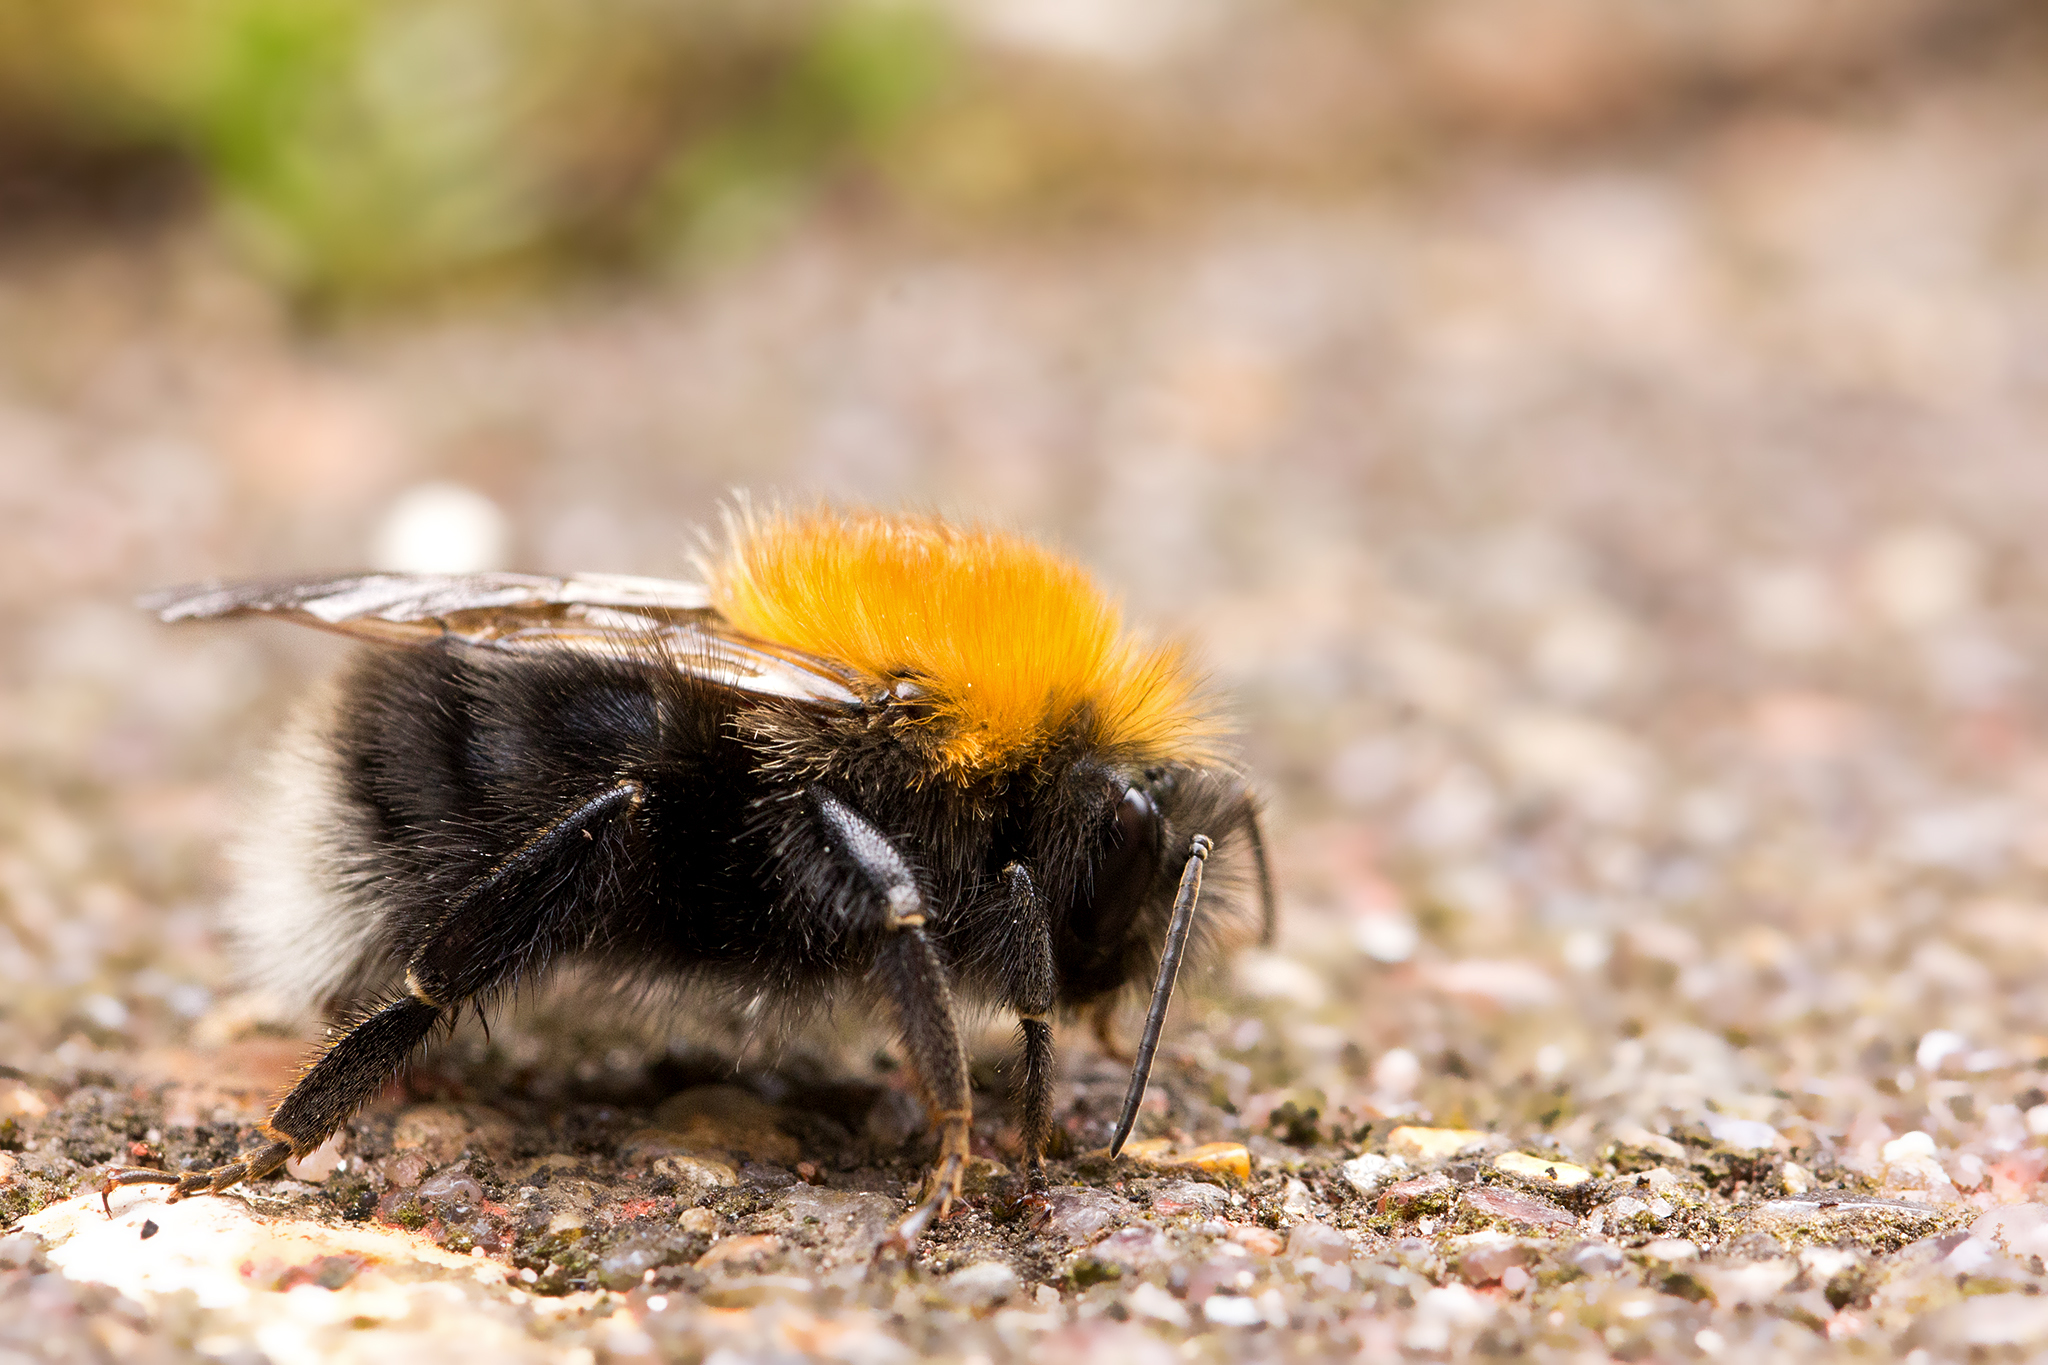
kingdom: Animalia
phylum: Arthropoda
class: Insecta
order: Hymenoptera
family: Apidae
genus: Bombus
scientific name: Bombus hypnorum
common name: New garden bumblebee
